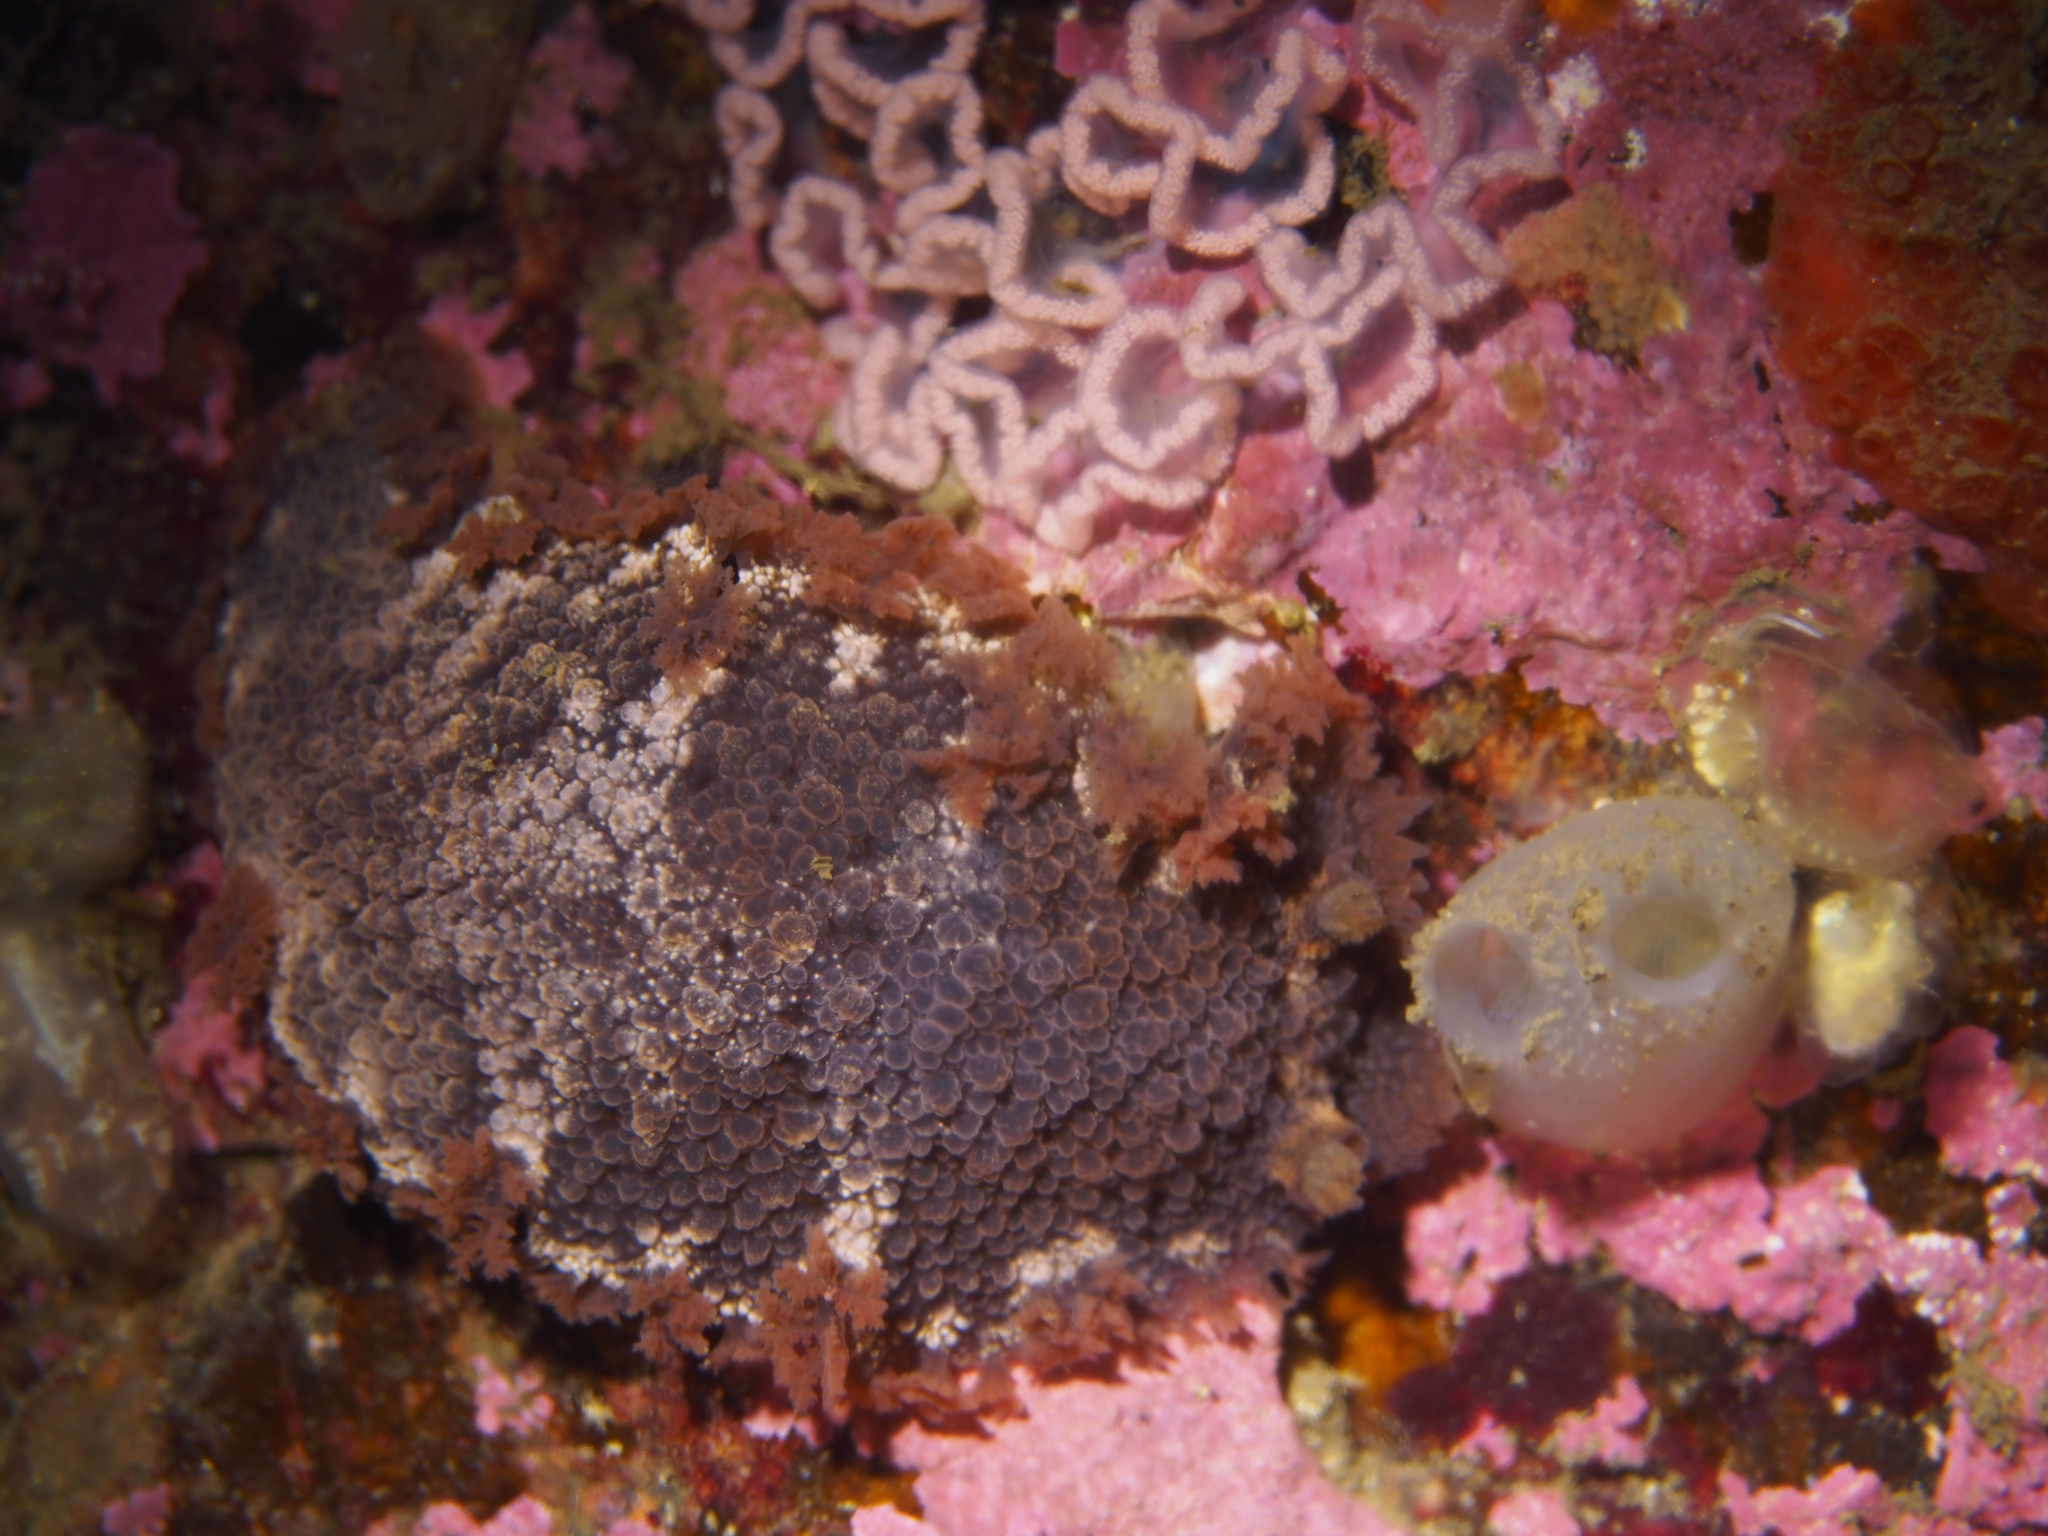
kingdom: Animalia
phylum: Mollusca
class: Gastropoda
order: Nudibranchia
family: Tritoniidae
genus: Tritonia
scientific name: Tritonia hombergii
